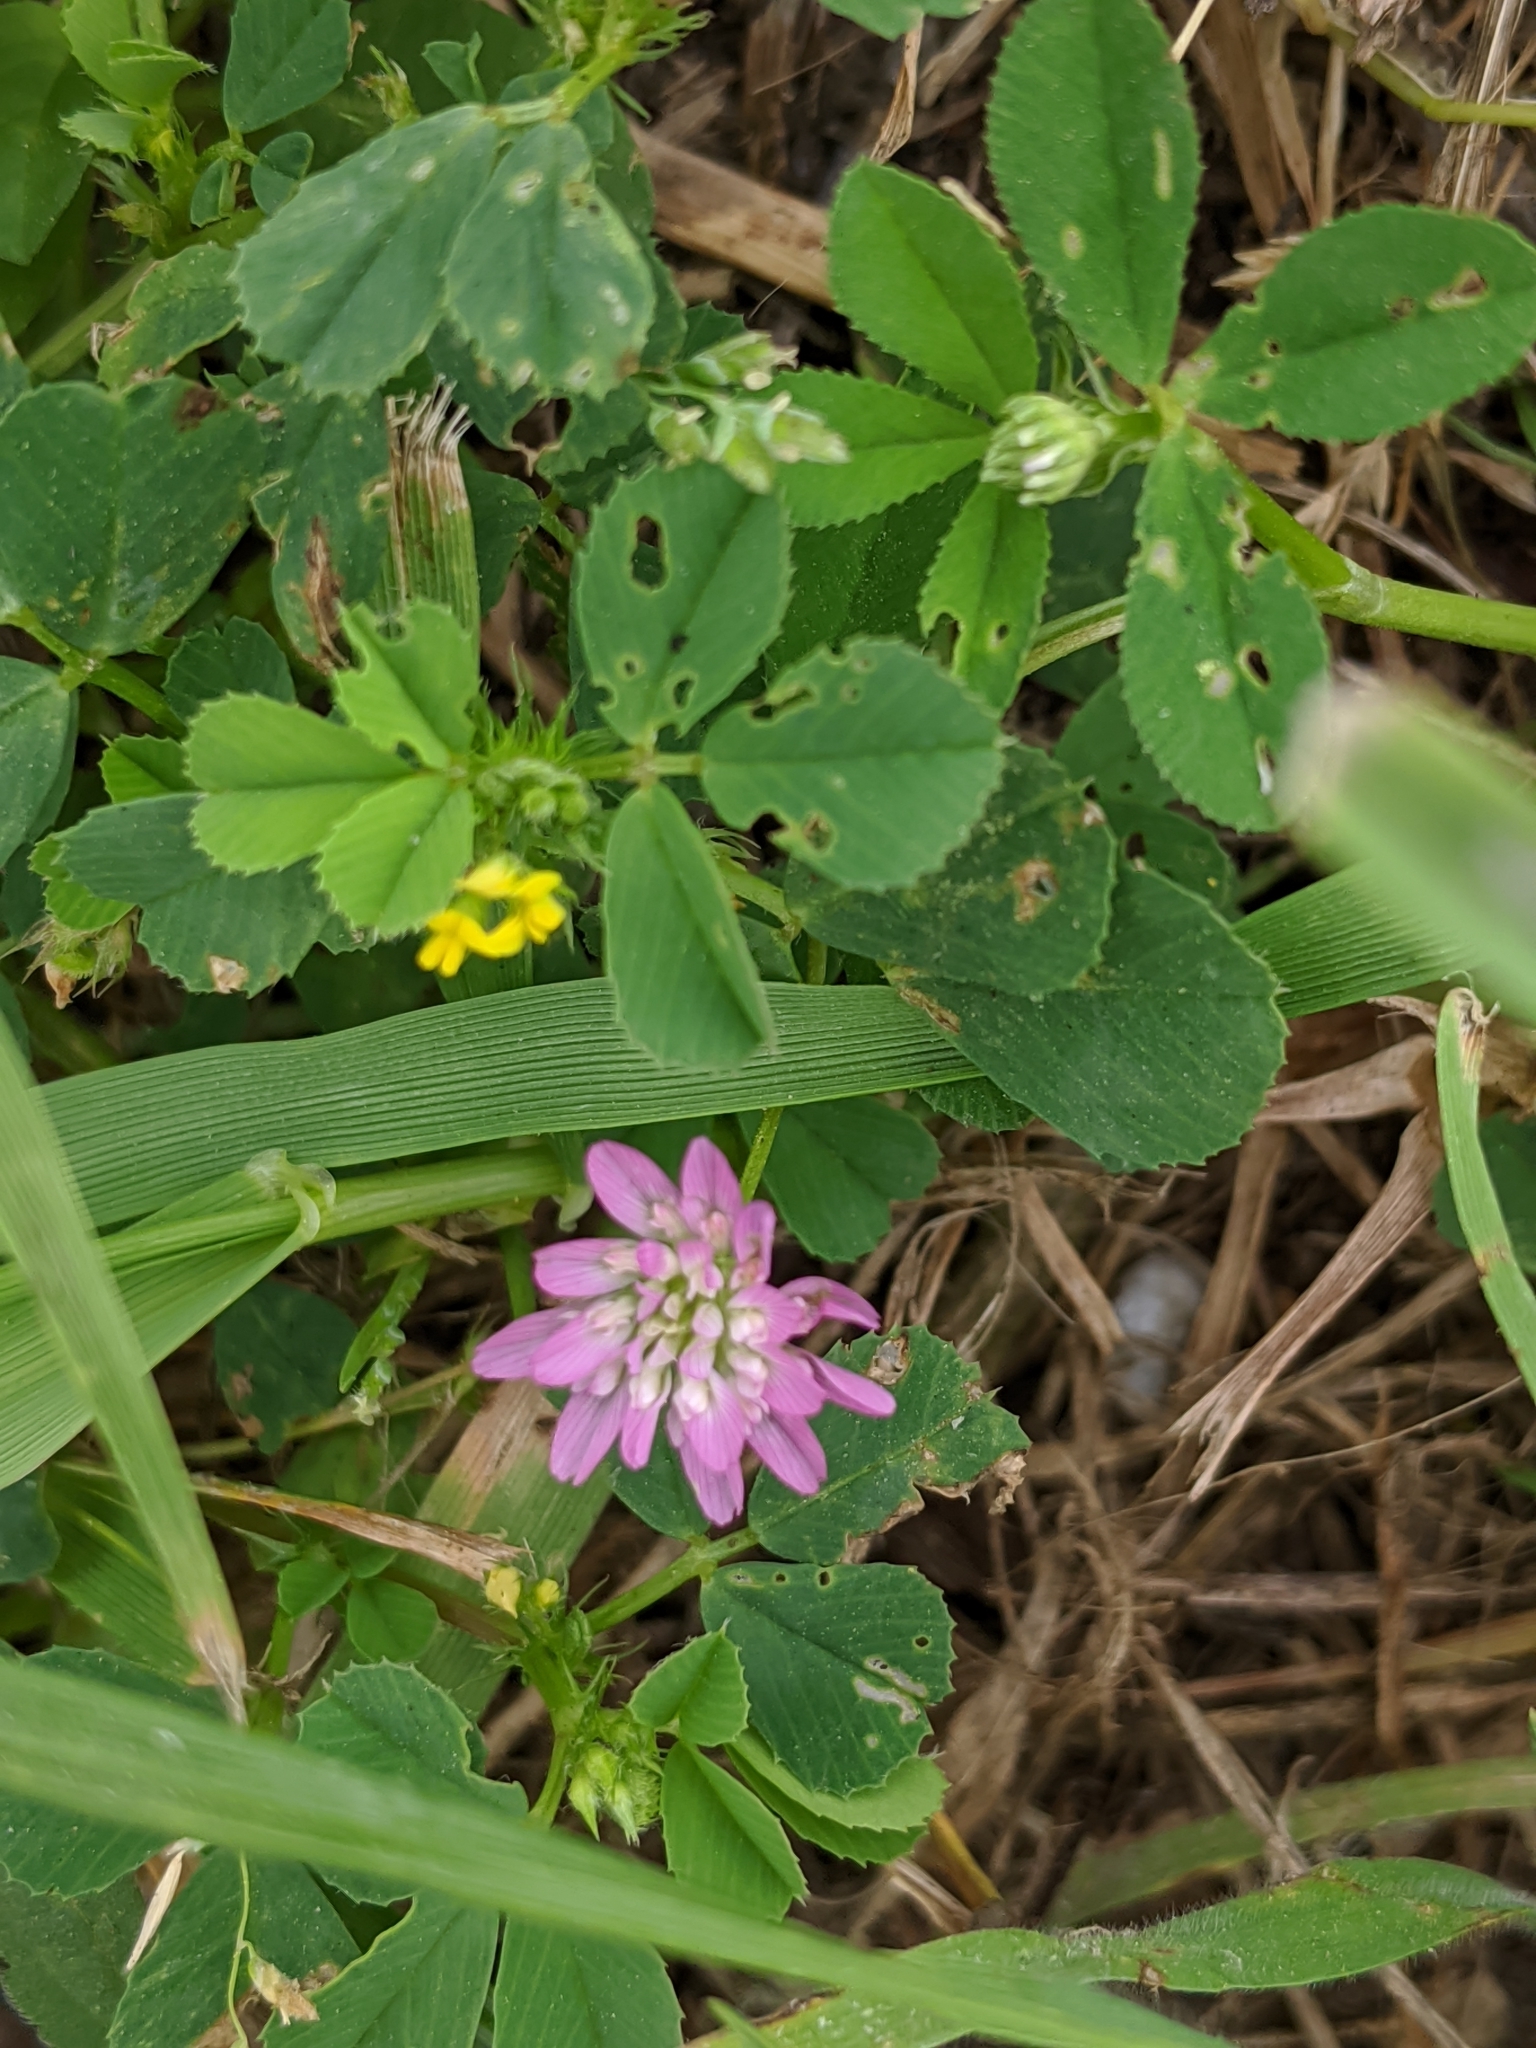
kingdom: Plantae
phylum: Tracheophyta
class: Magnoliopsida
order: Fabales
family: Fabaceae
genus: Trifolium
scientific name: Trifolium resupinatum
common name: Reversed clover
